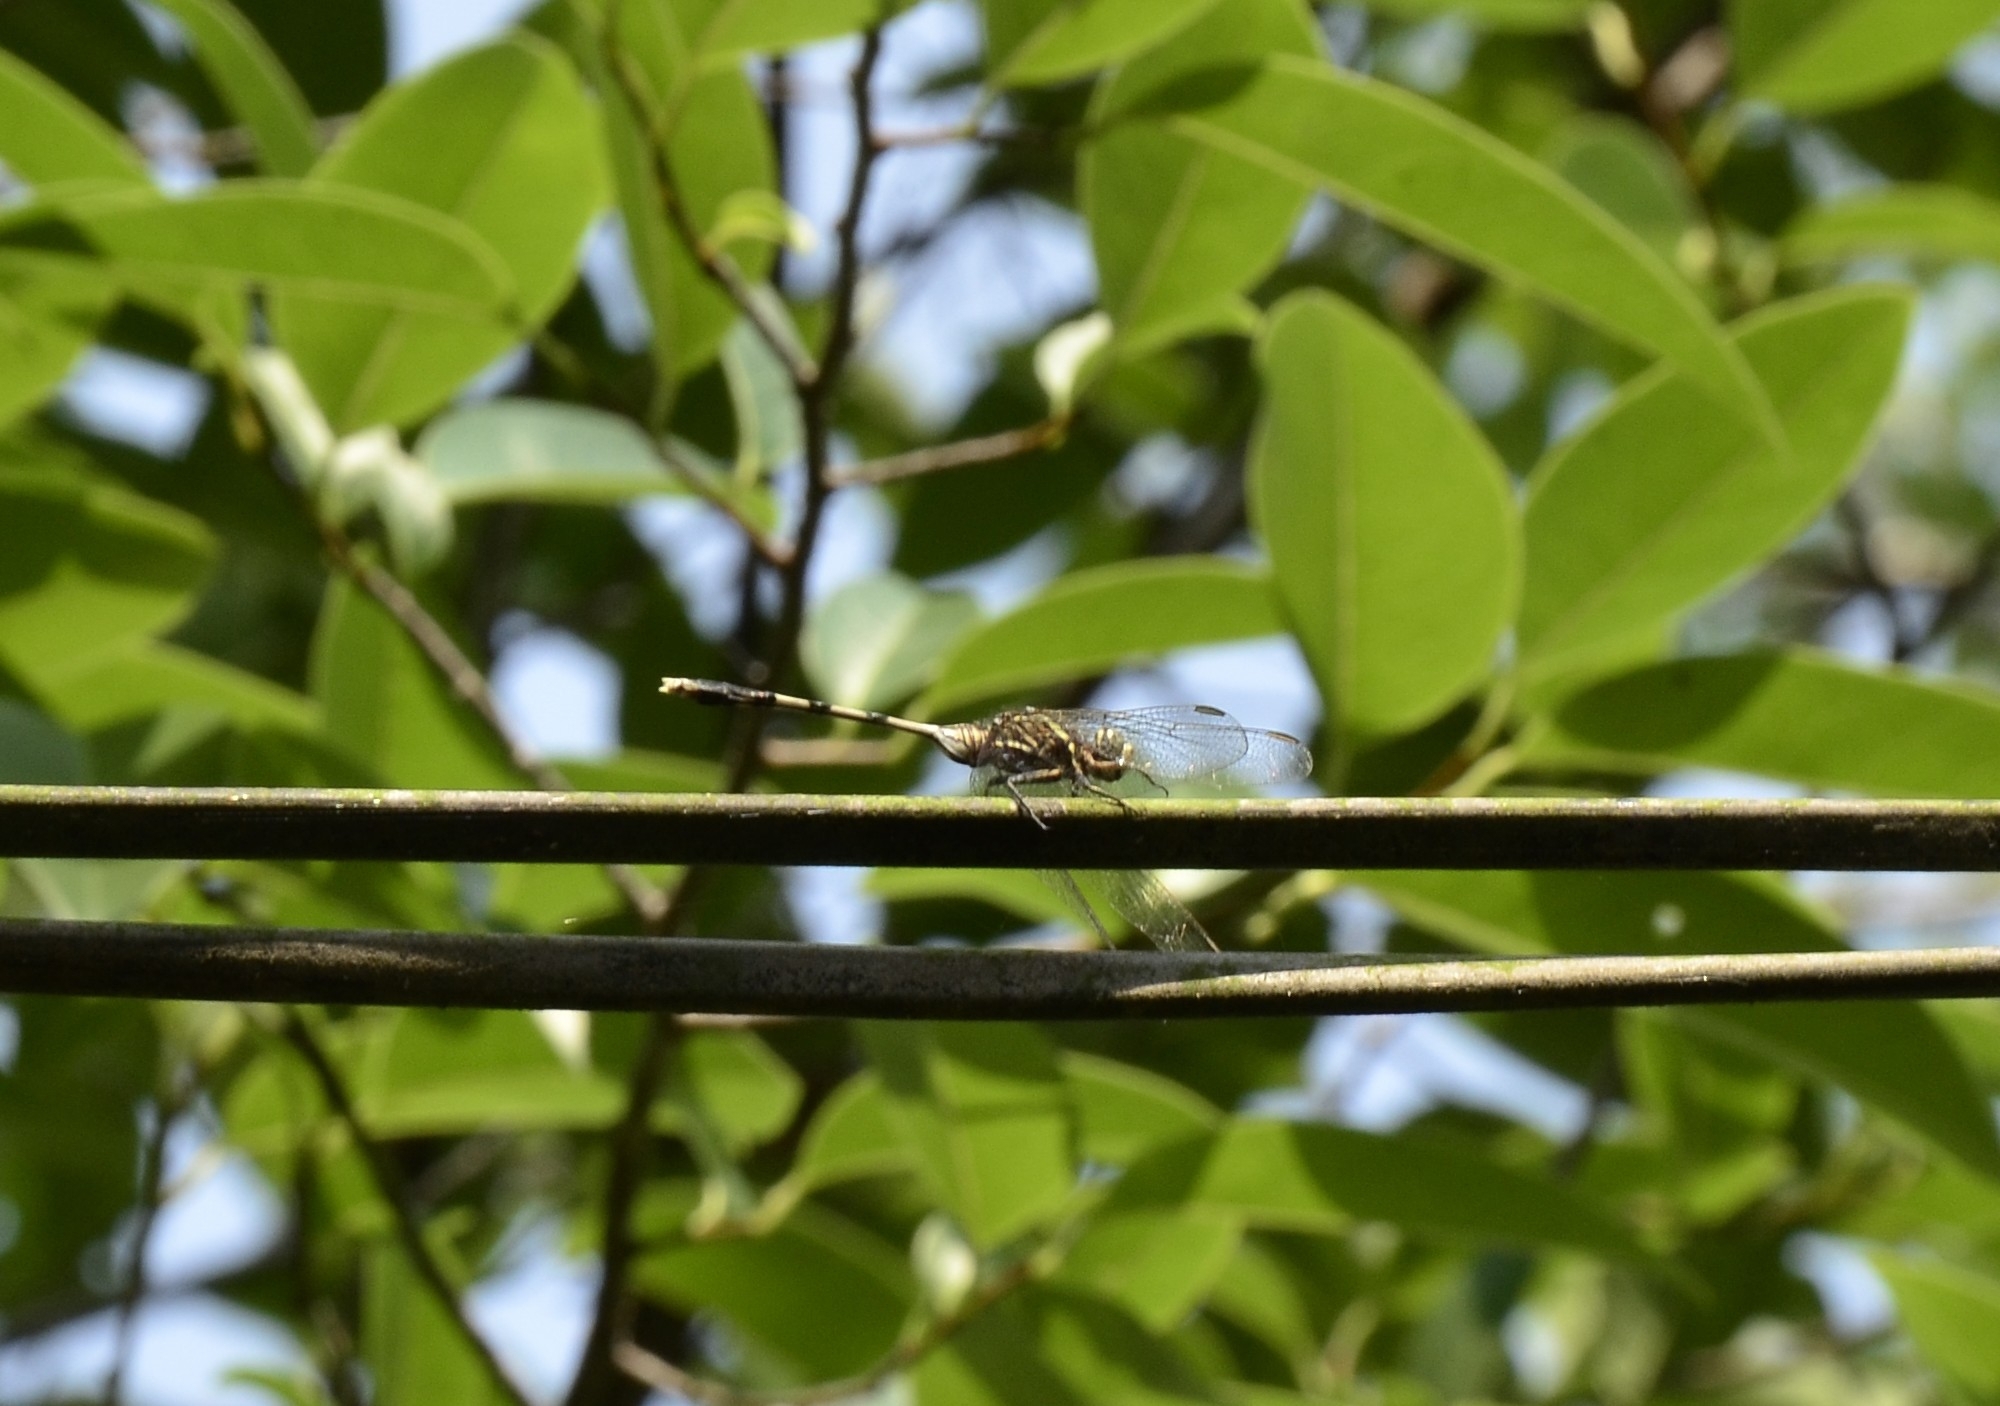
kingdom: Animalia
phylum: Arthropoda
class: Insecta
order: Odonata
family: Libellulidae
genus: Orthetrum
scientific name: Orthetrum sabina
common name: Slender skimmer
